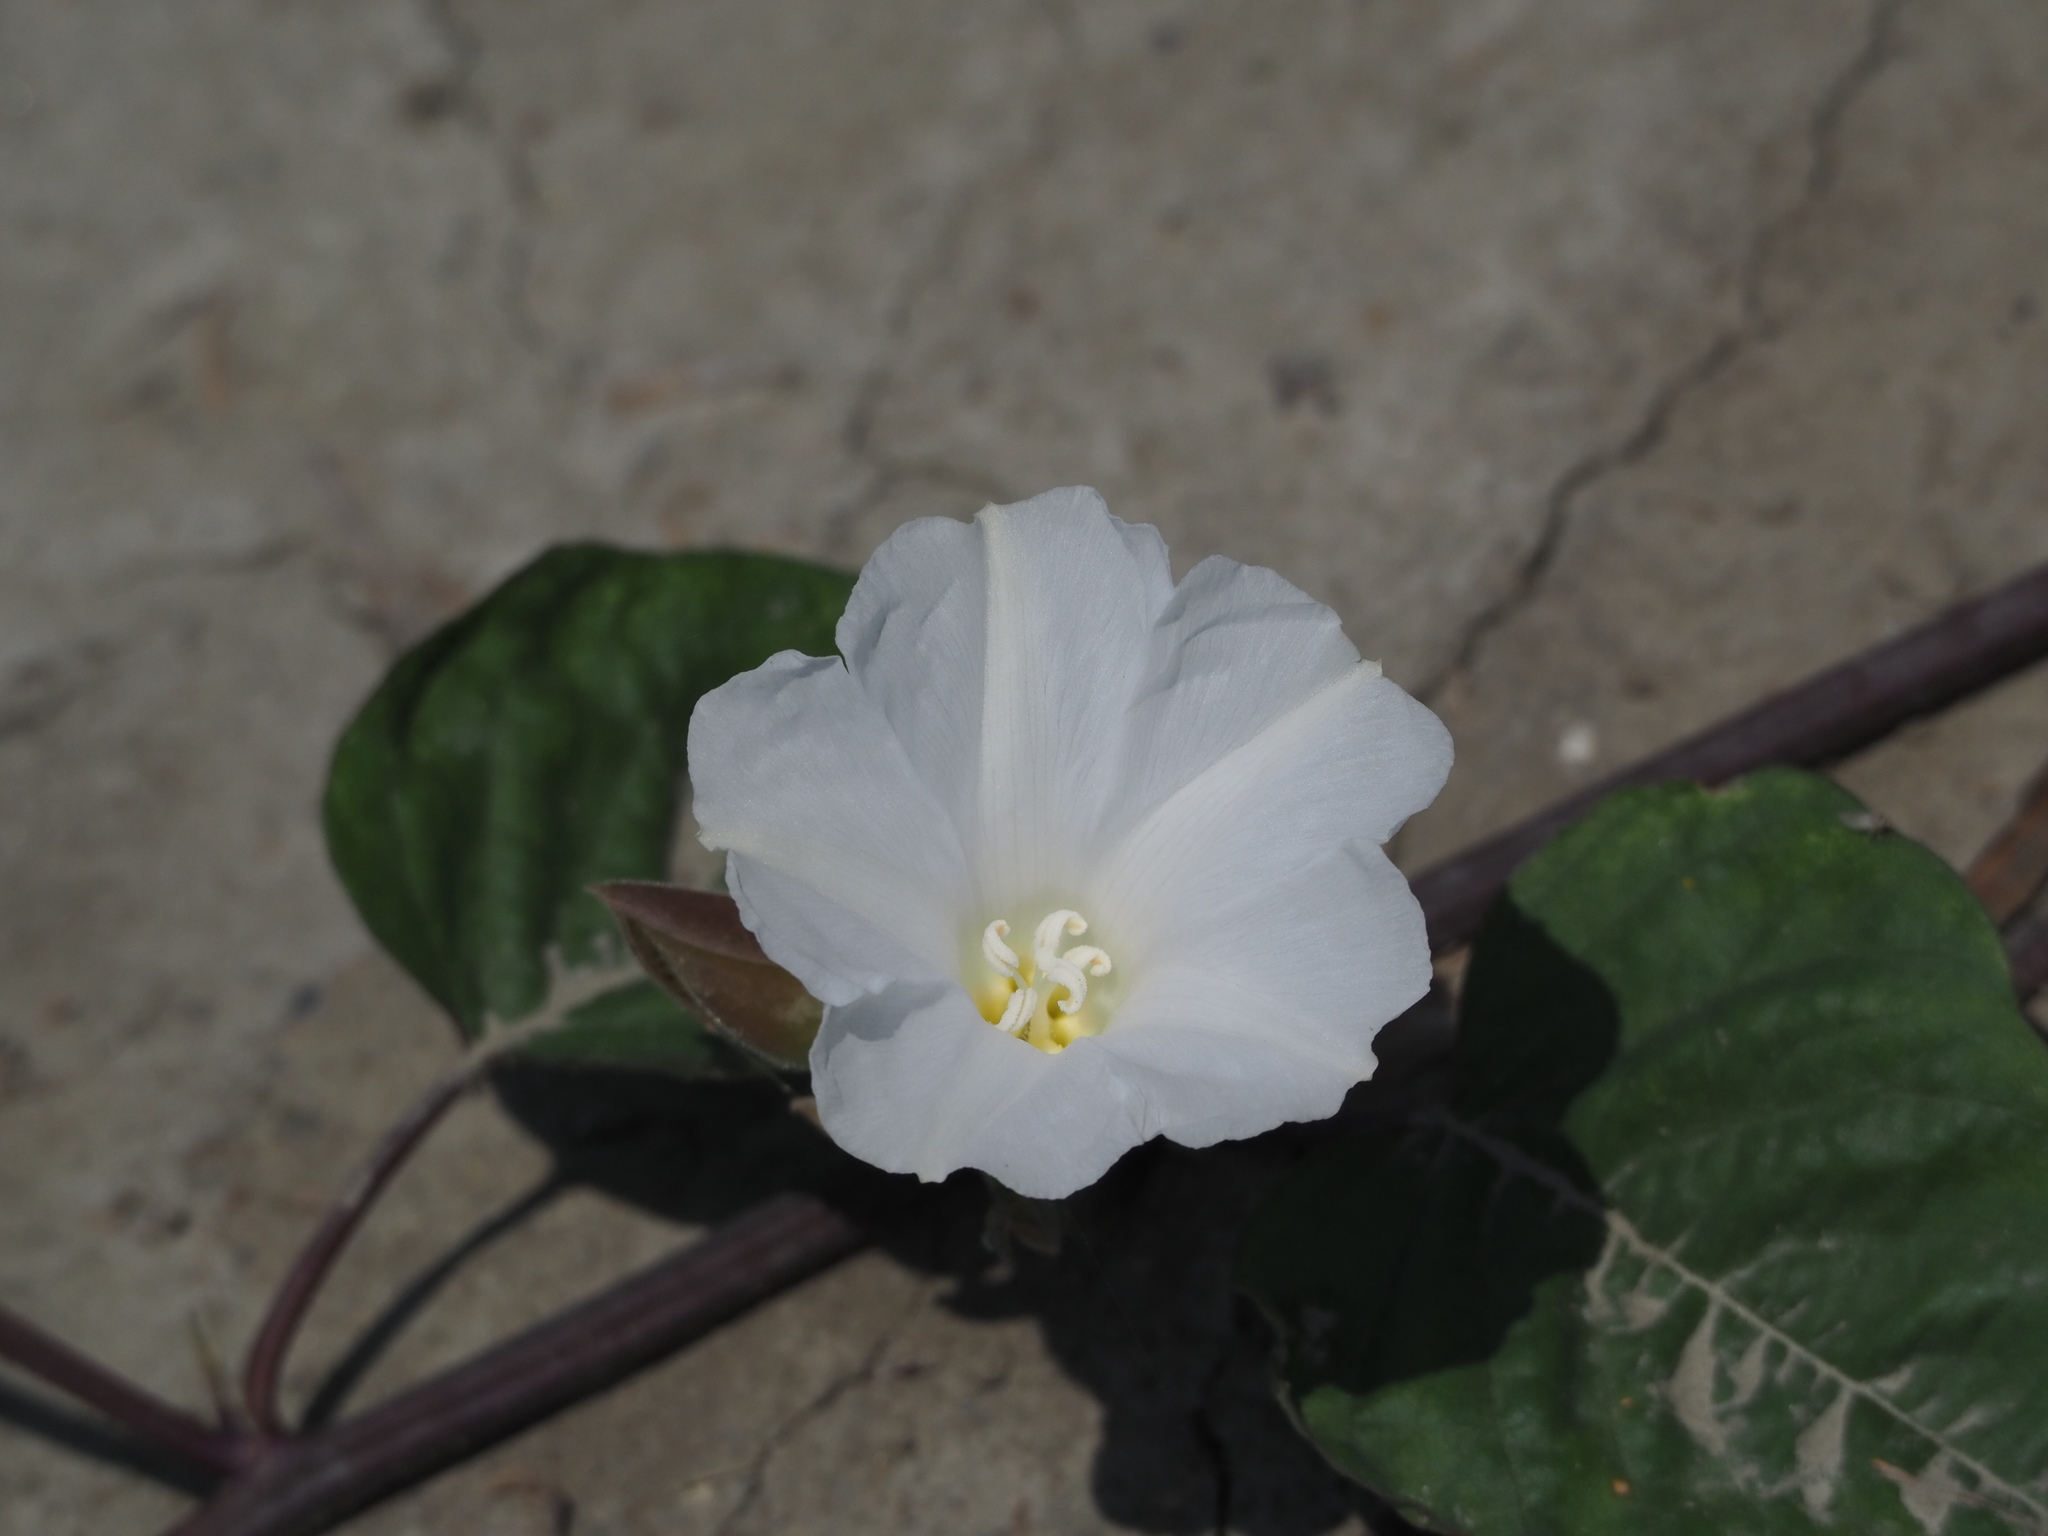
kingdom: Plantae
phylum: Tracheophyta
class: Magnoliopsida
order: Solanales
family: Convolvulaceae
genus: Operculina
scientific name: Operculina turpethum
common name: Transparent wood-rose
